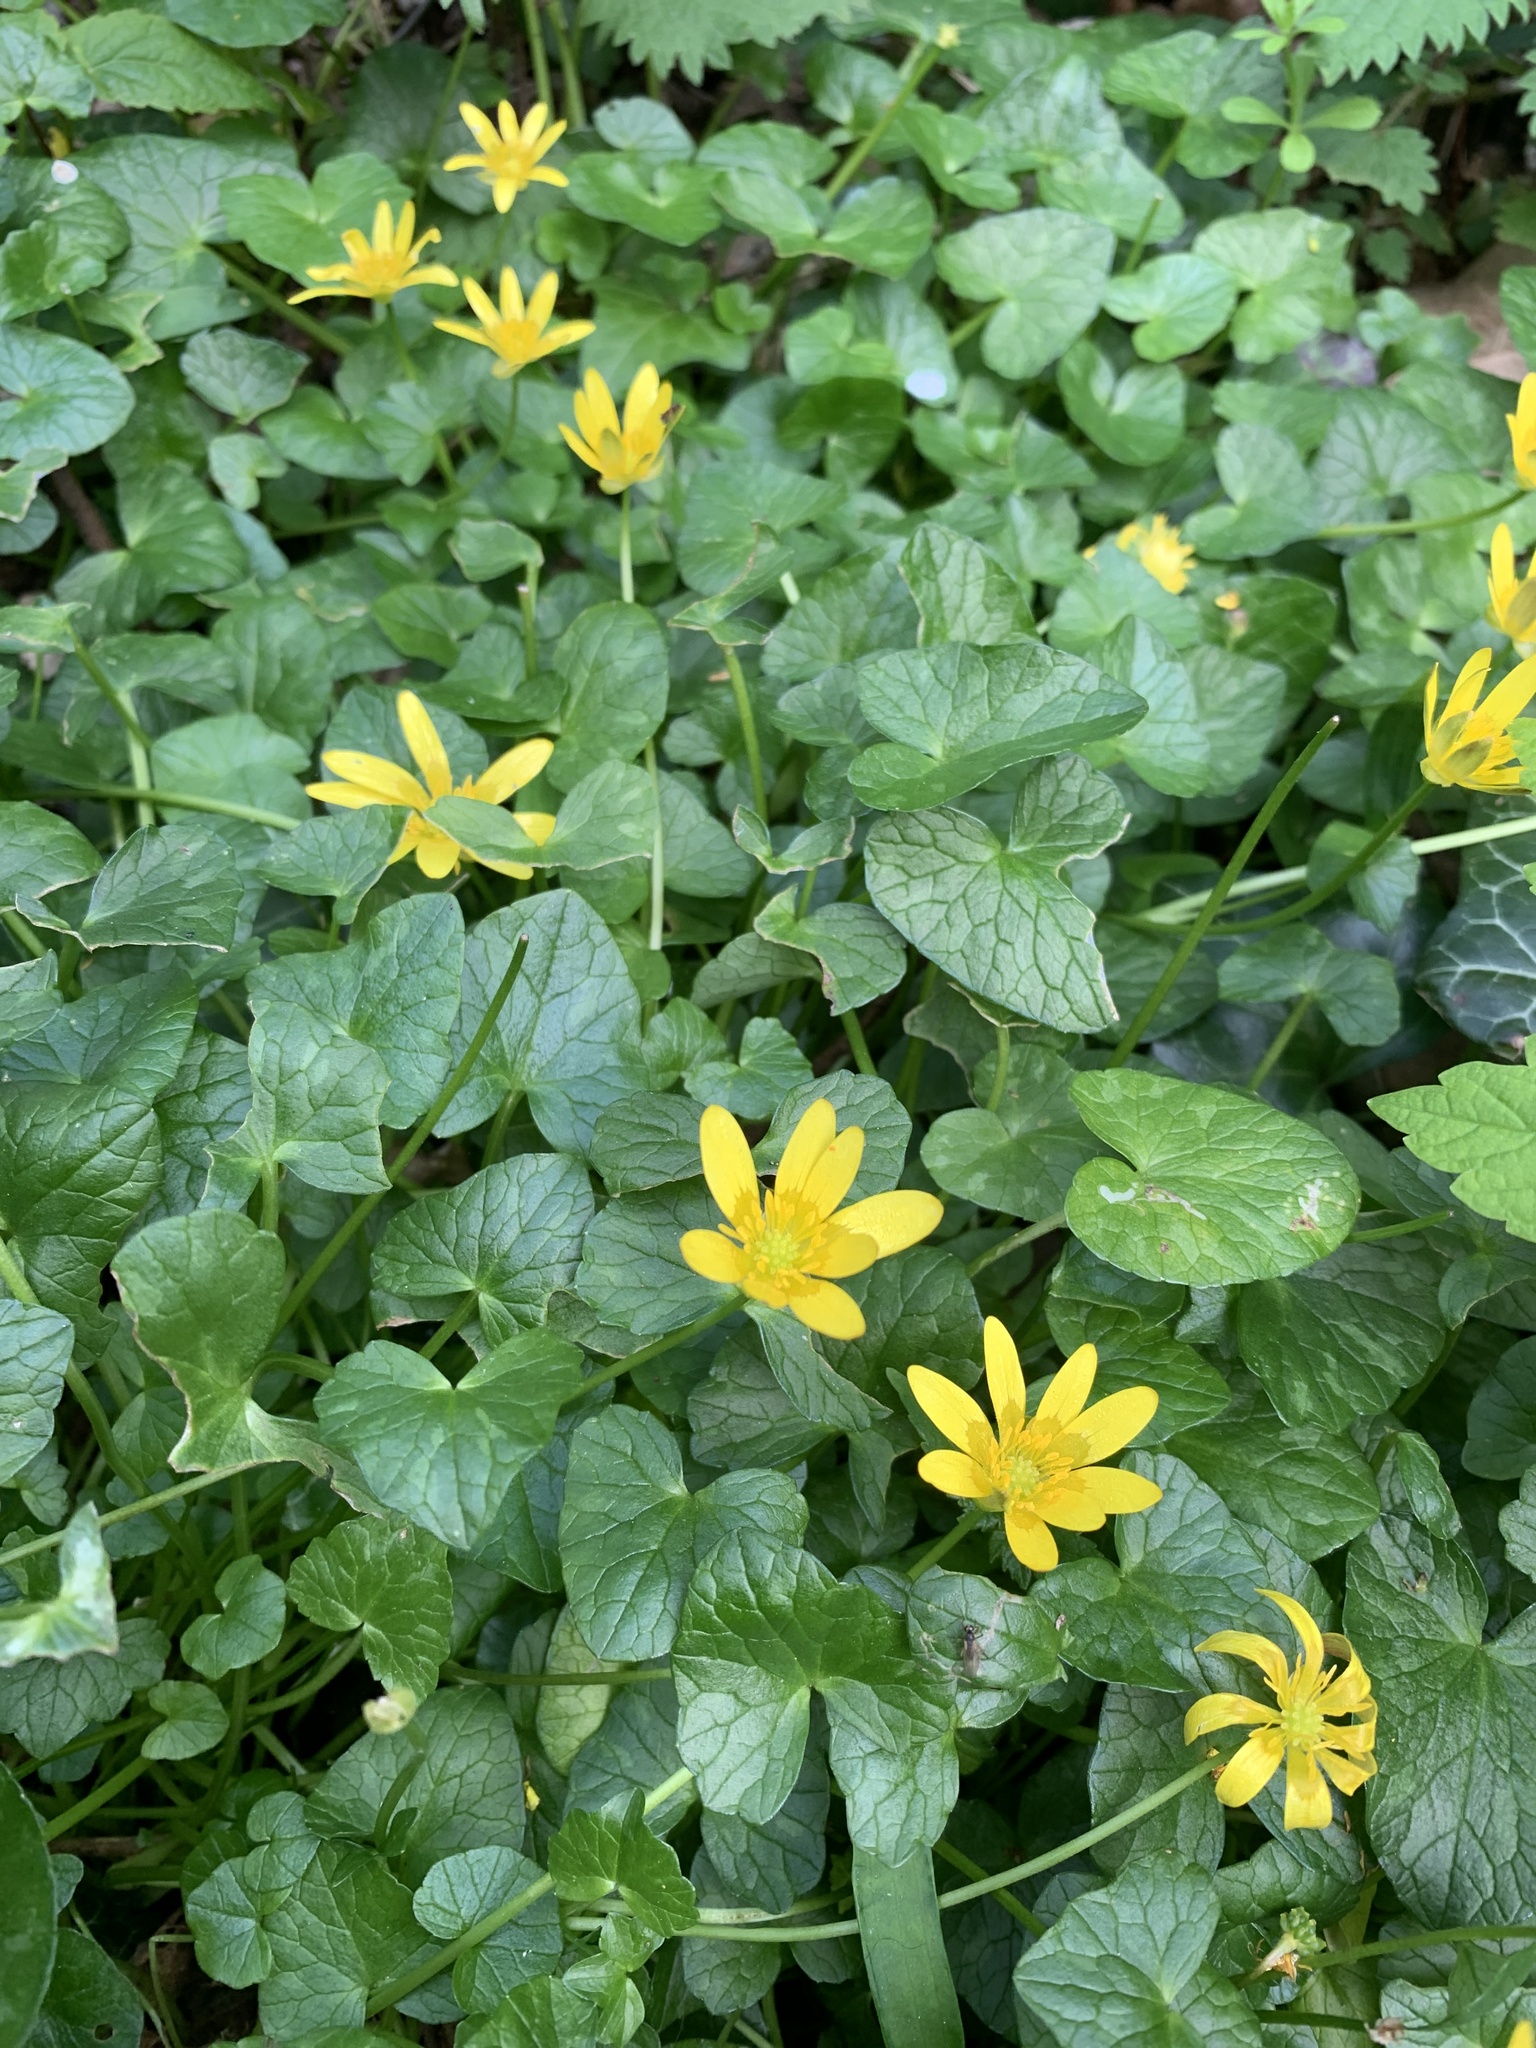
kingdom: Plantae
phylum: Tracheophyta
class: Magnoliopsida
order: Ranunculales
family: Ranunculaceae
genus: Ficaria
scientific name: Ficaria verna
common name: Lesser celandine
